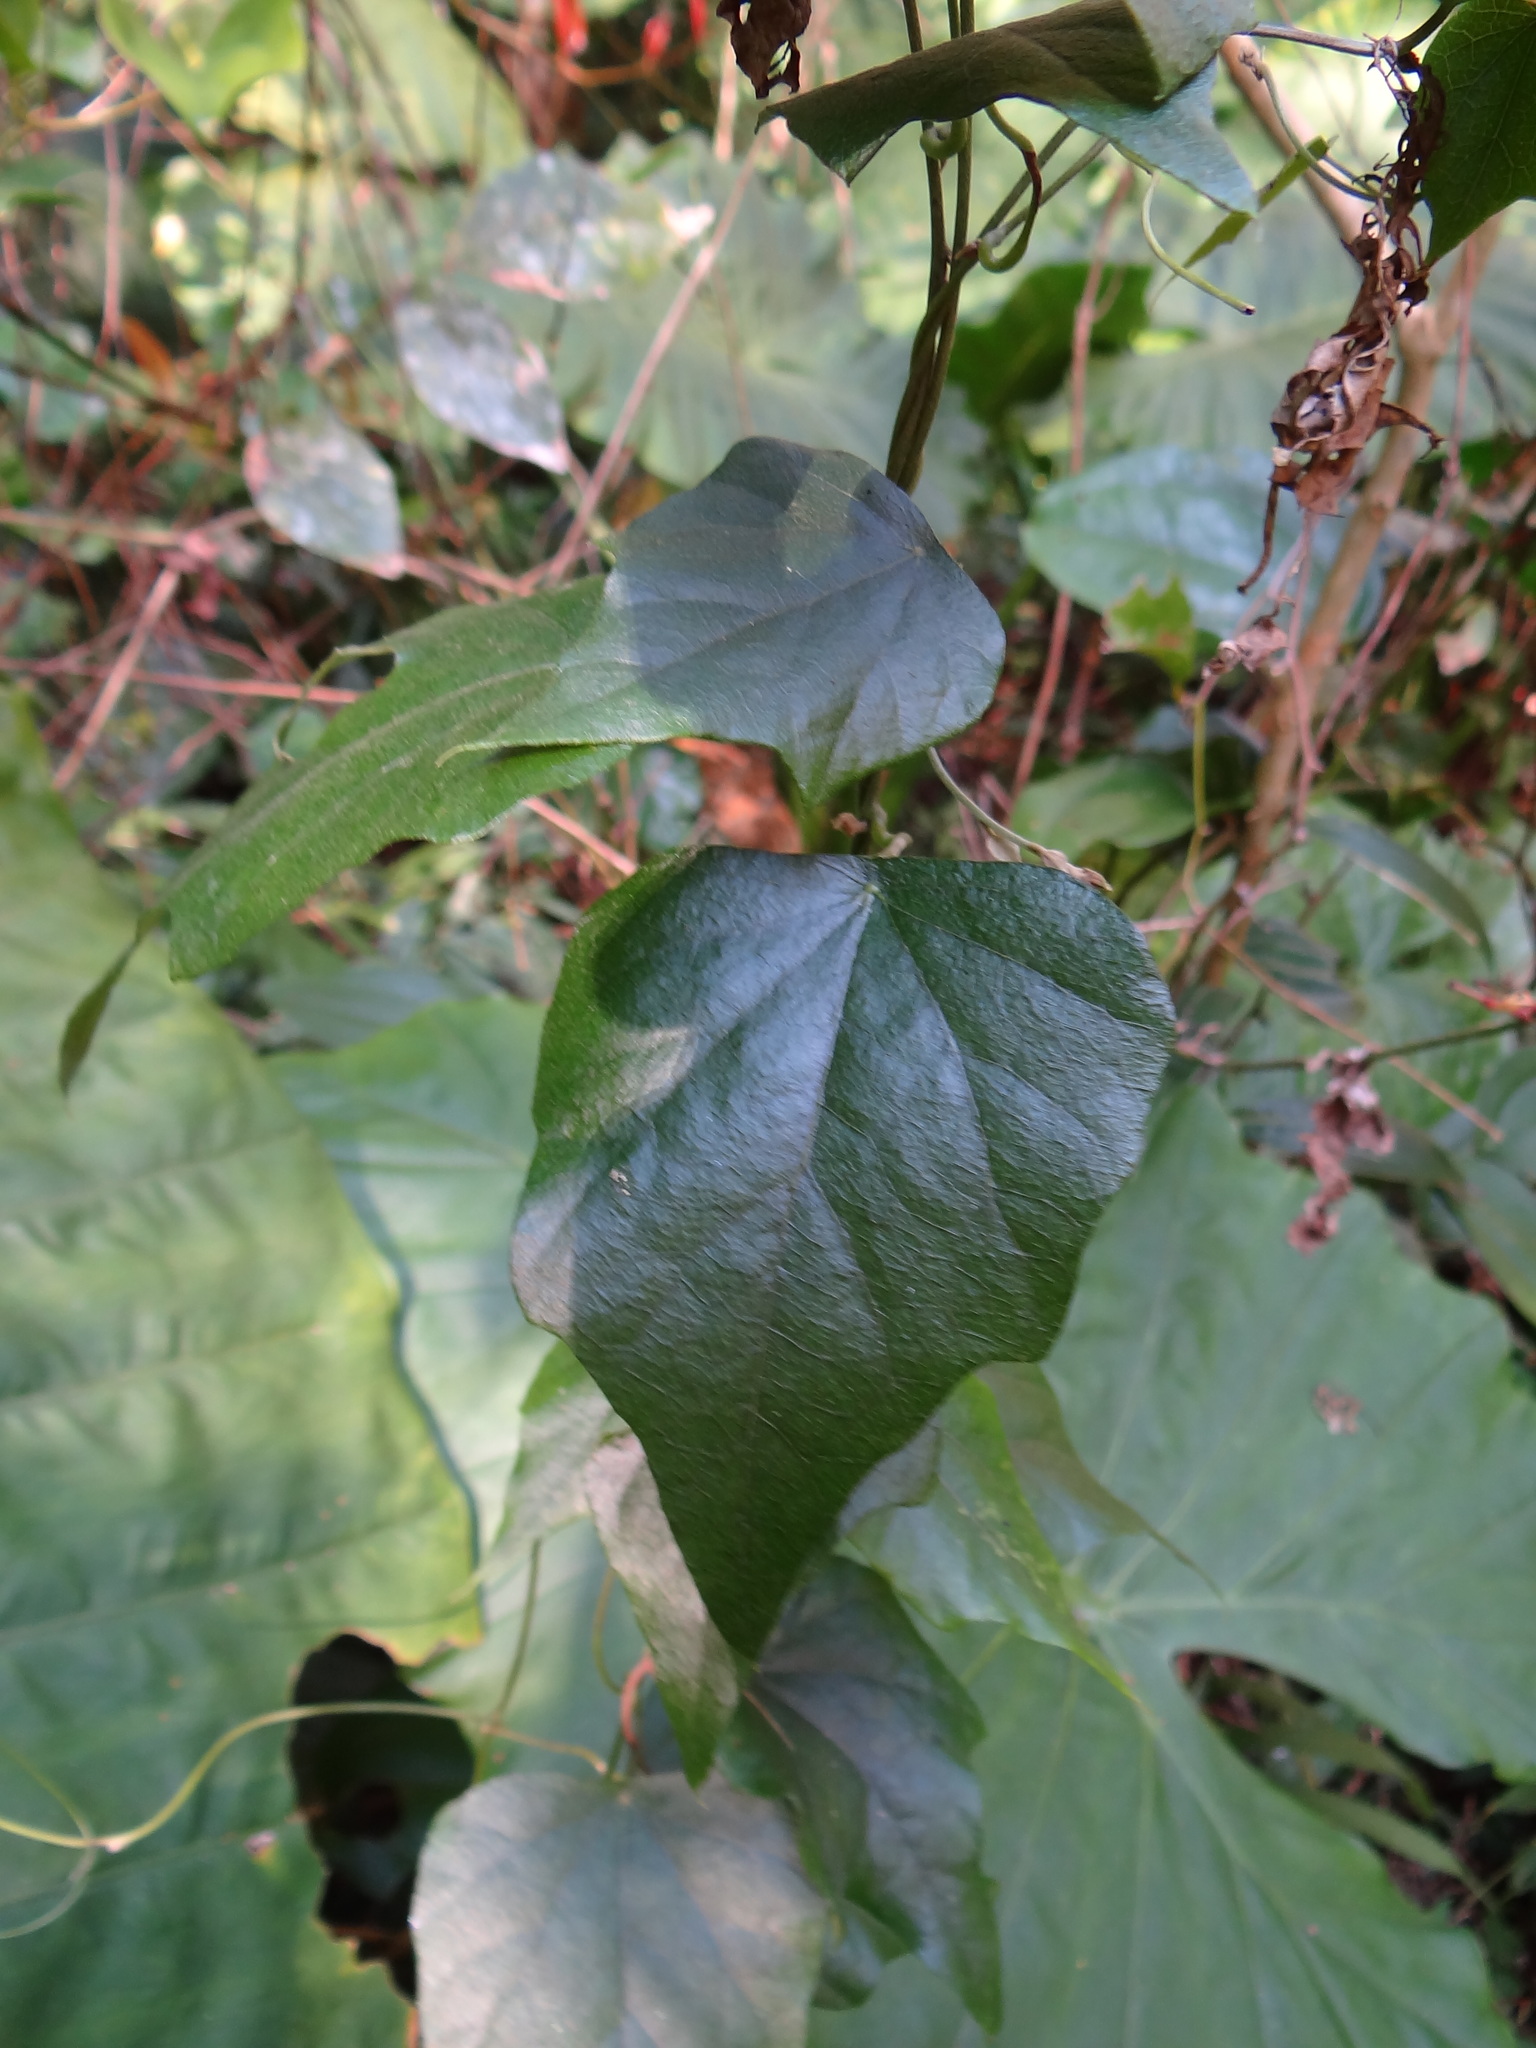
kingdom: Plantae
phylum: Tracheophyta
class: Magnoliopsida
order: Ranunculales
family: Menispermaceae
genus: Cyclea
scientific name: Cyclea ochiaiana
